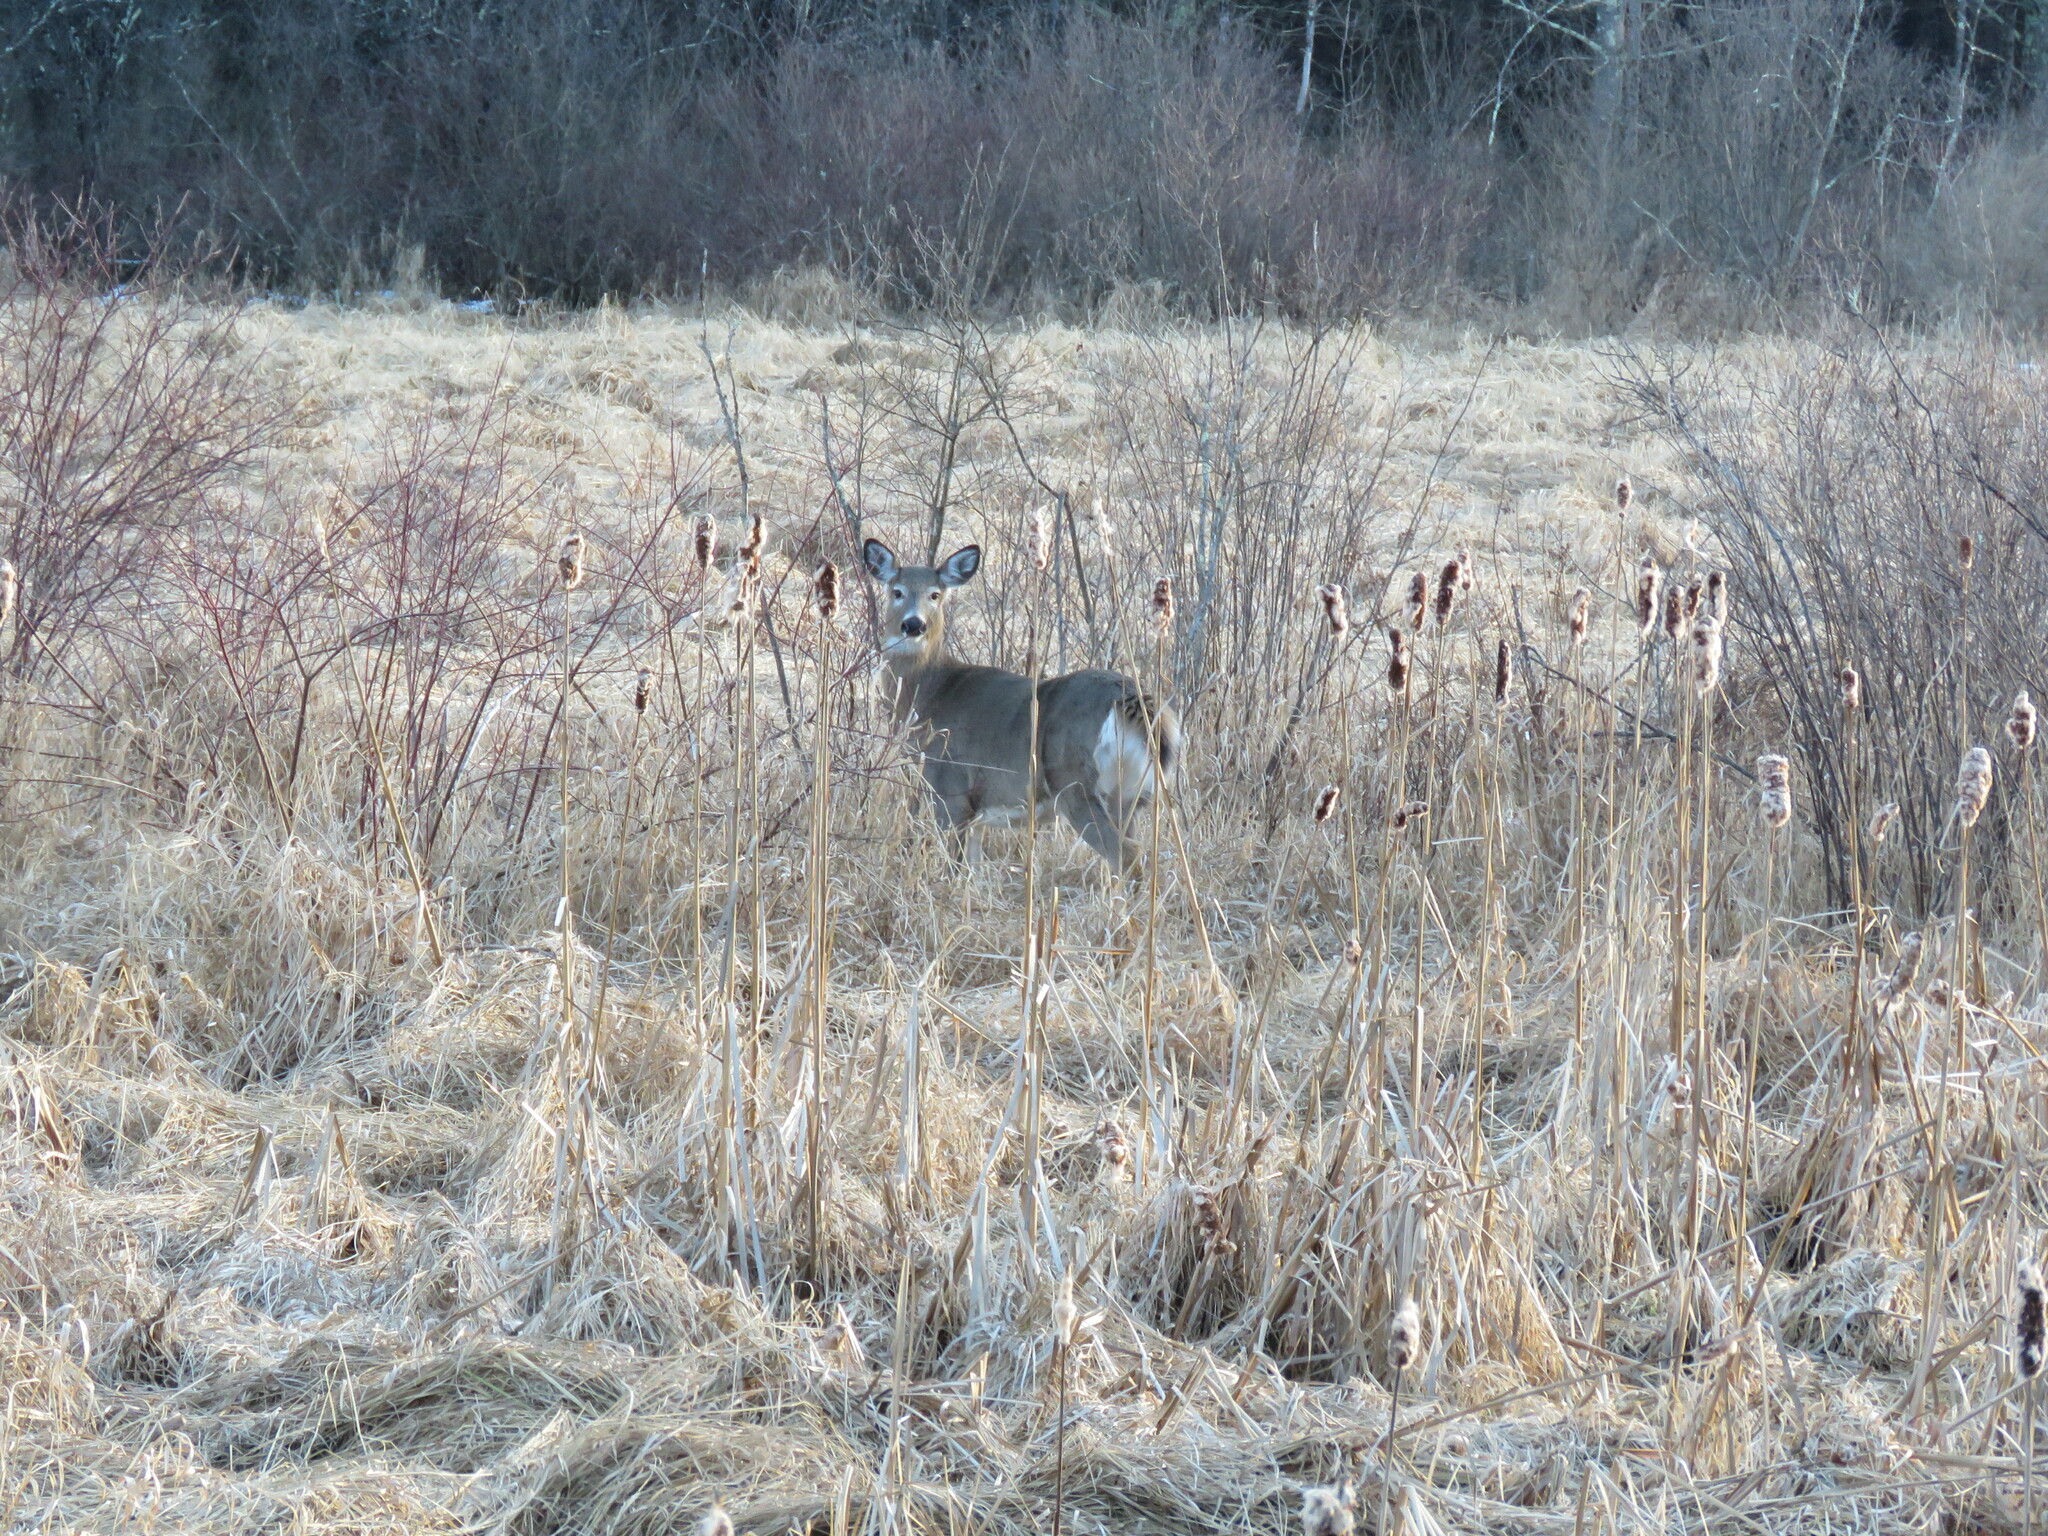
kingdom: Animalia
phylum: Chordata
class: Mammalia
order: Artiodactyla
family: Cervidae
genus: Odocoileus
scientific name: Odocoileus virginianus
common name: White-tailed deer
